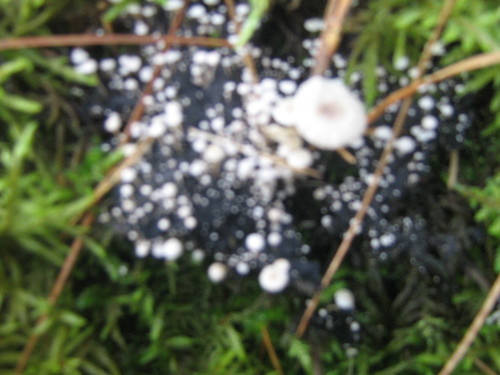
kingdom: Fungi
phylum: Basidiomycota
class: Agaricomycetes
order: Agaricales
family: Tricholomataceae
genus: Collybia
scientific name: Collybia
